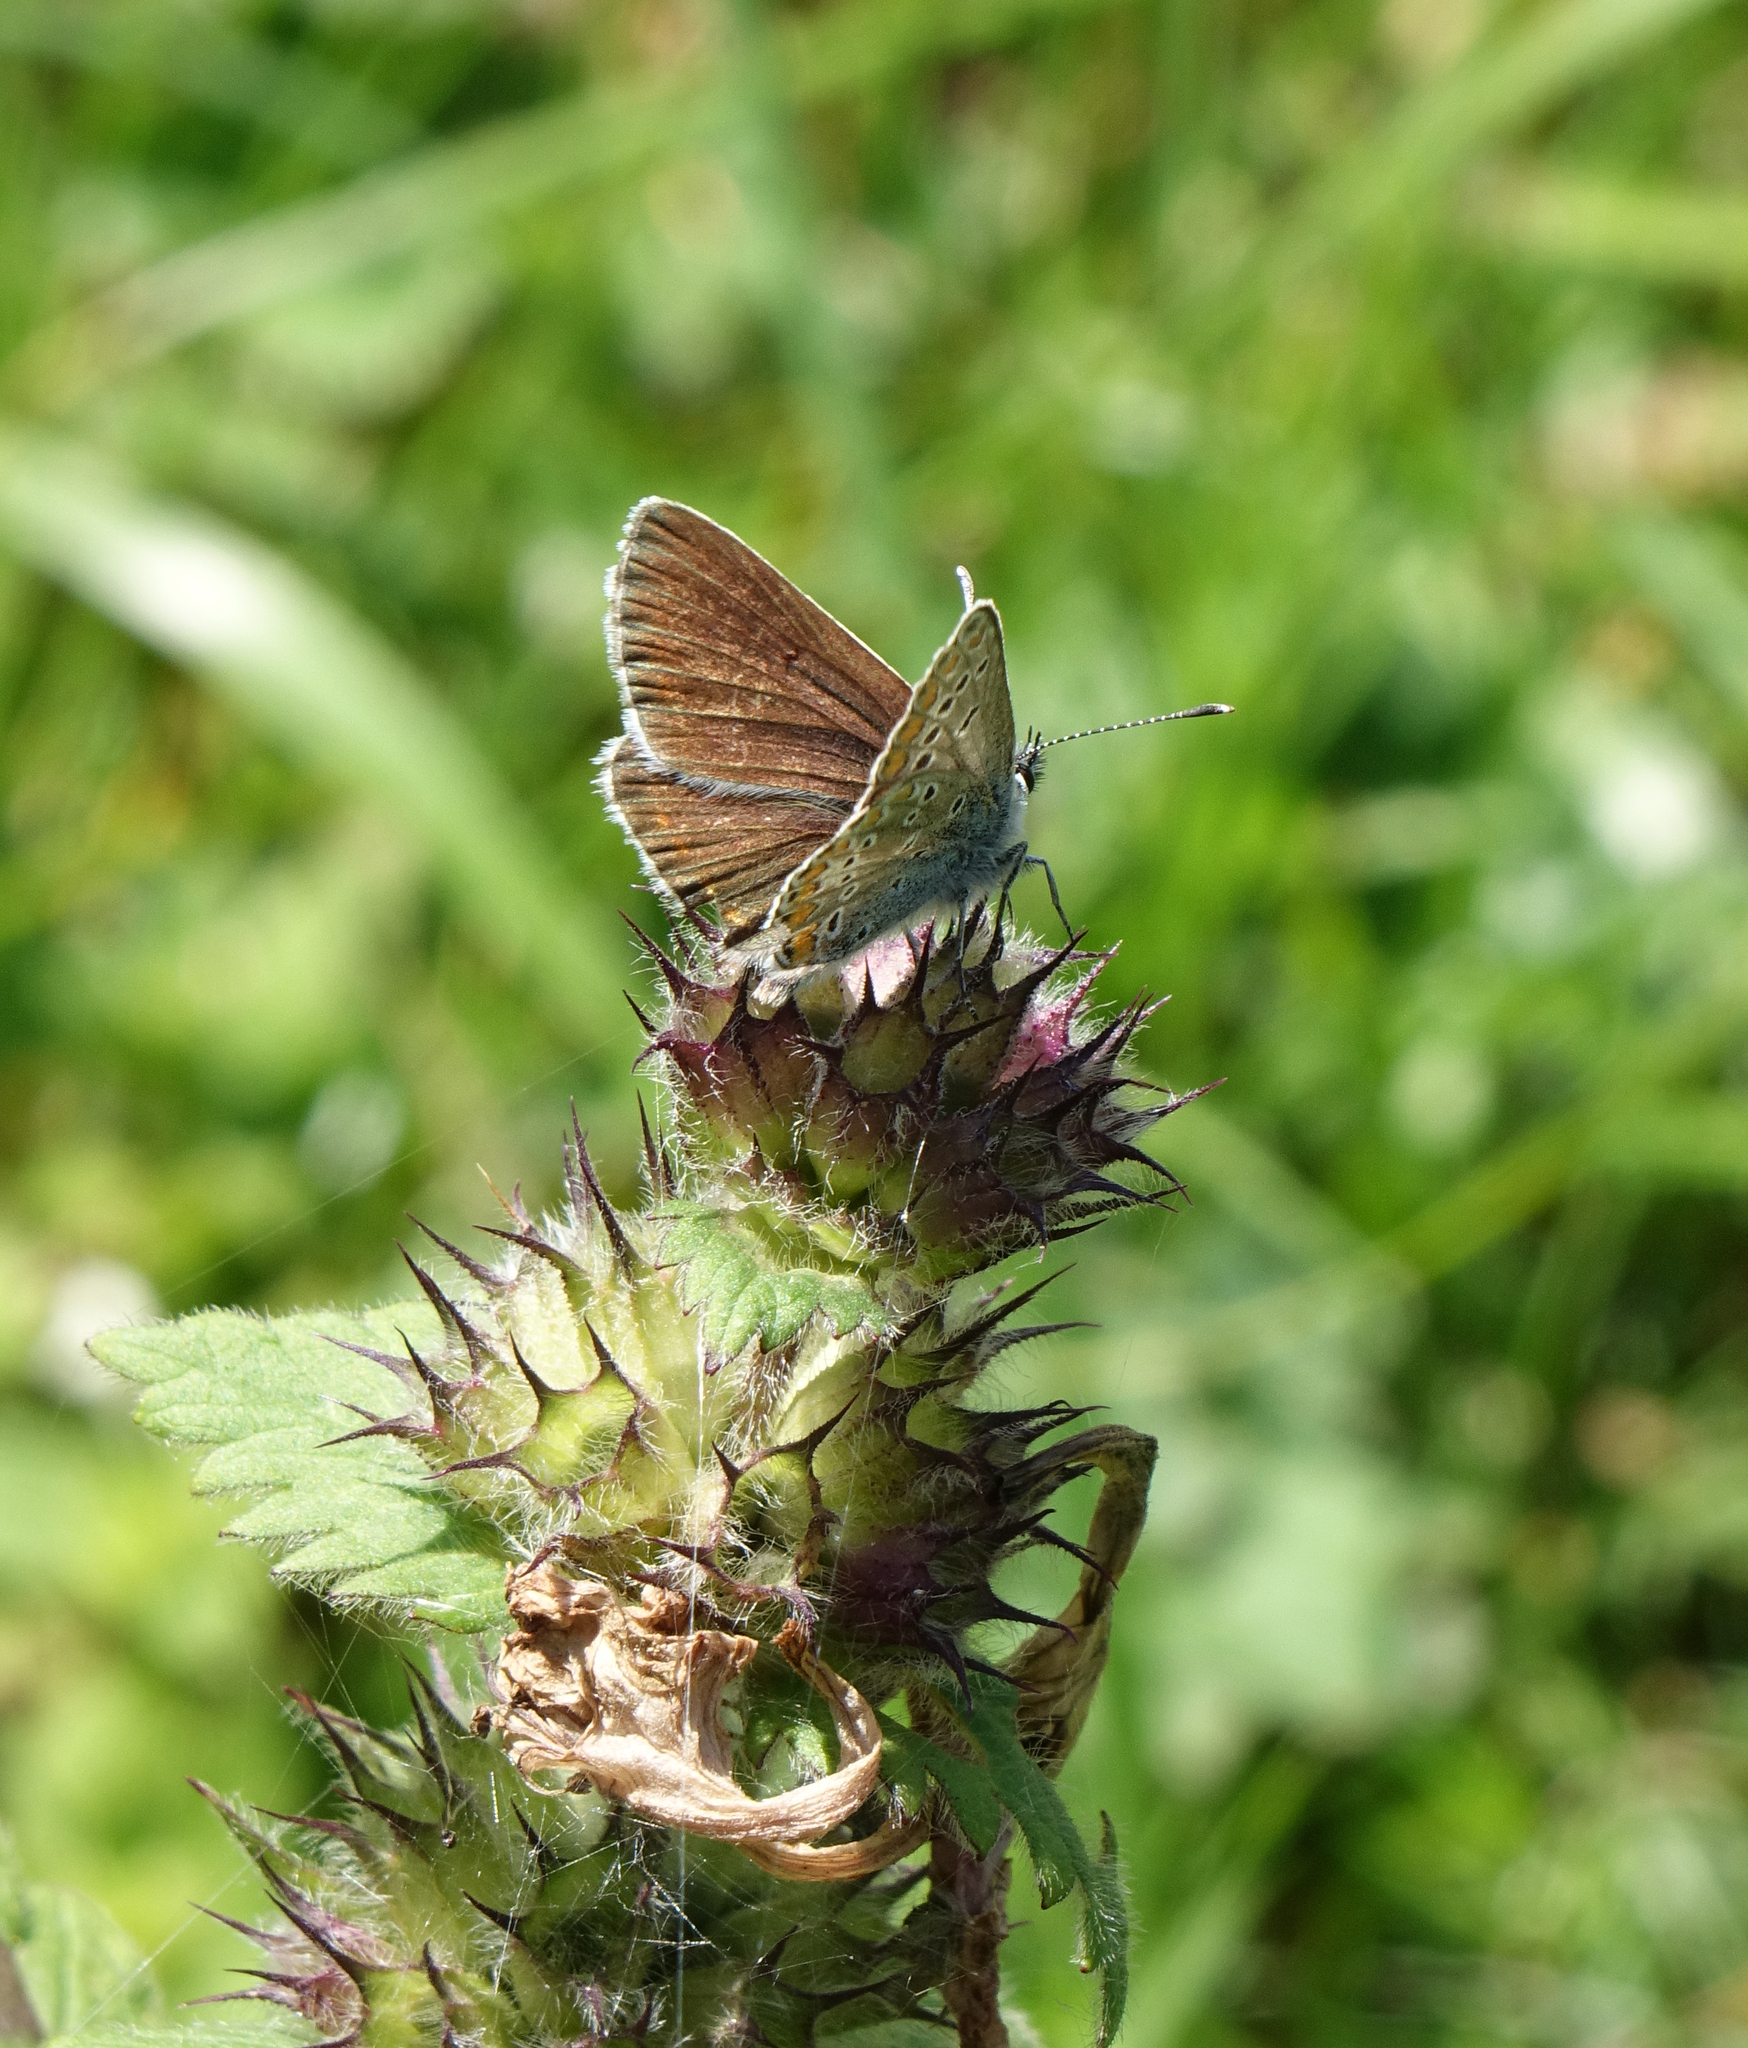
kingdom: Animalia
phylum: Arthropoda
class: Insecta
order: Lepidoptera
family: Lycaenidae
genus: Aricia
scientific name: Aricia artaxerxes
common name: Northern brown argus
